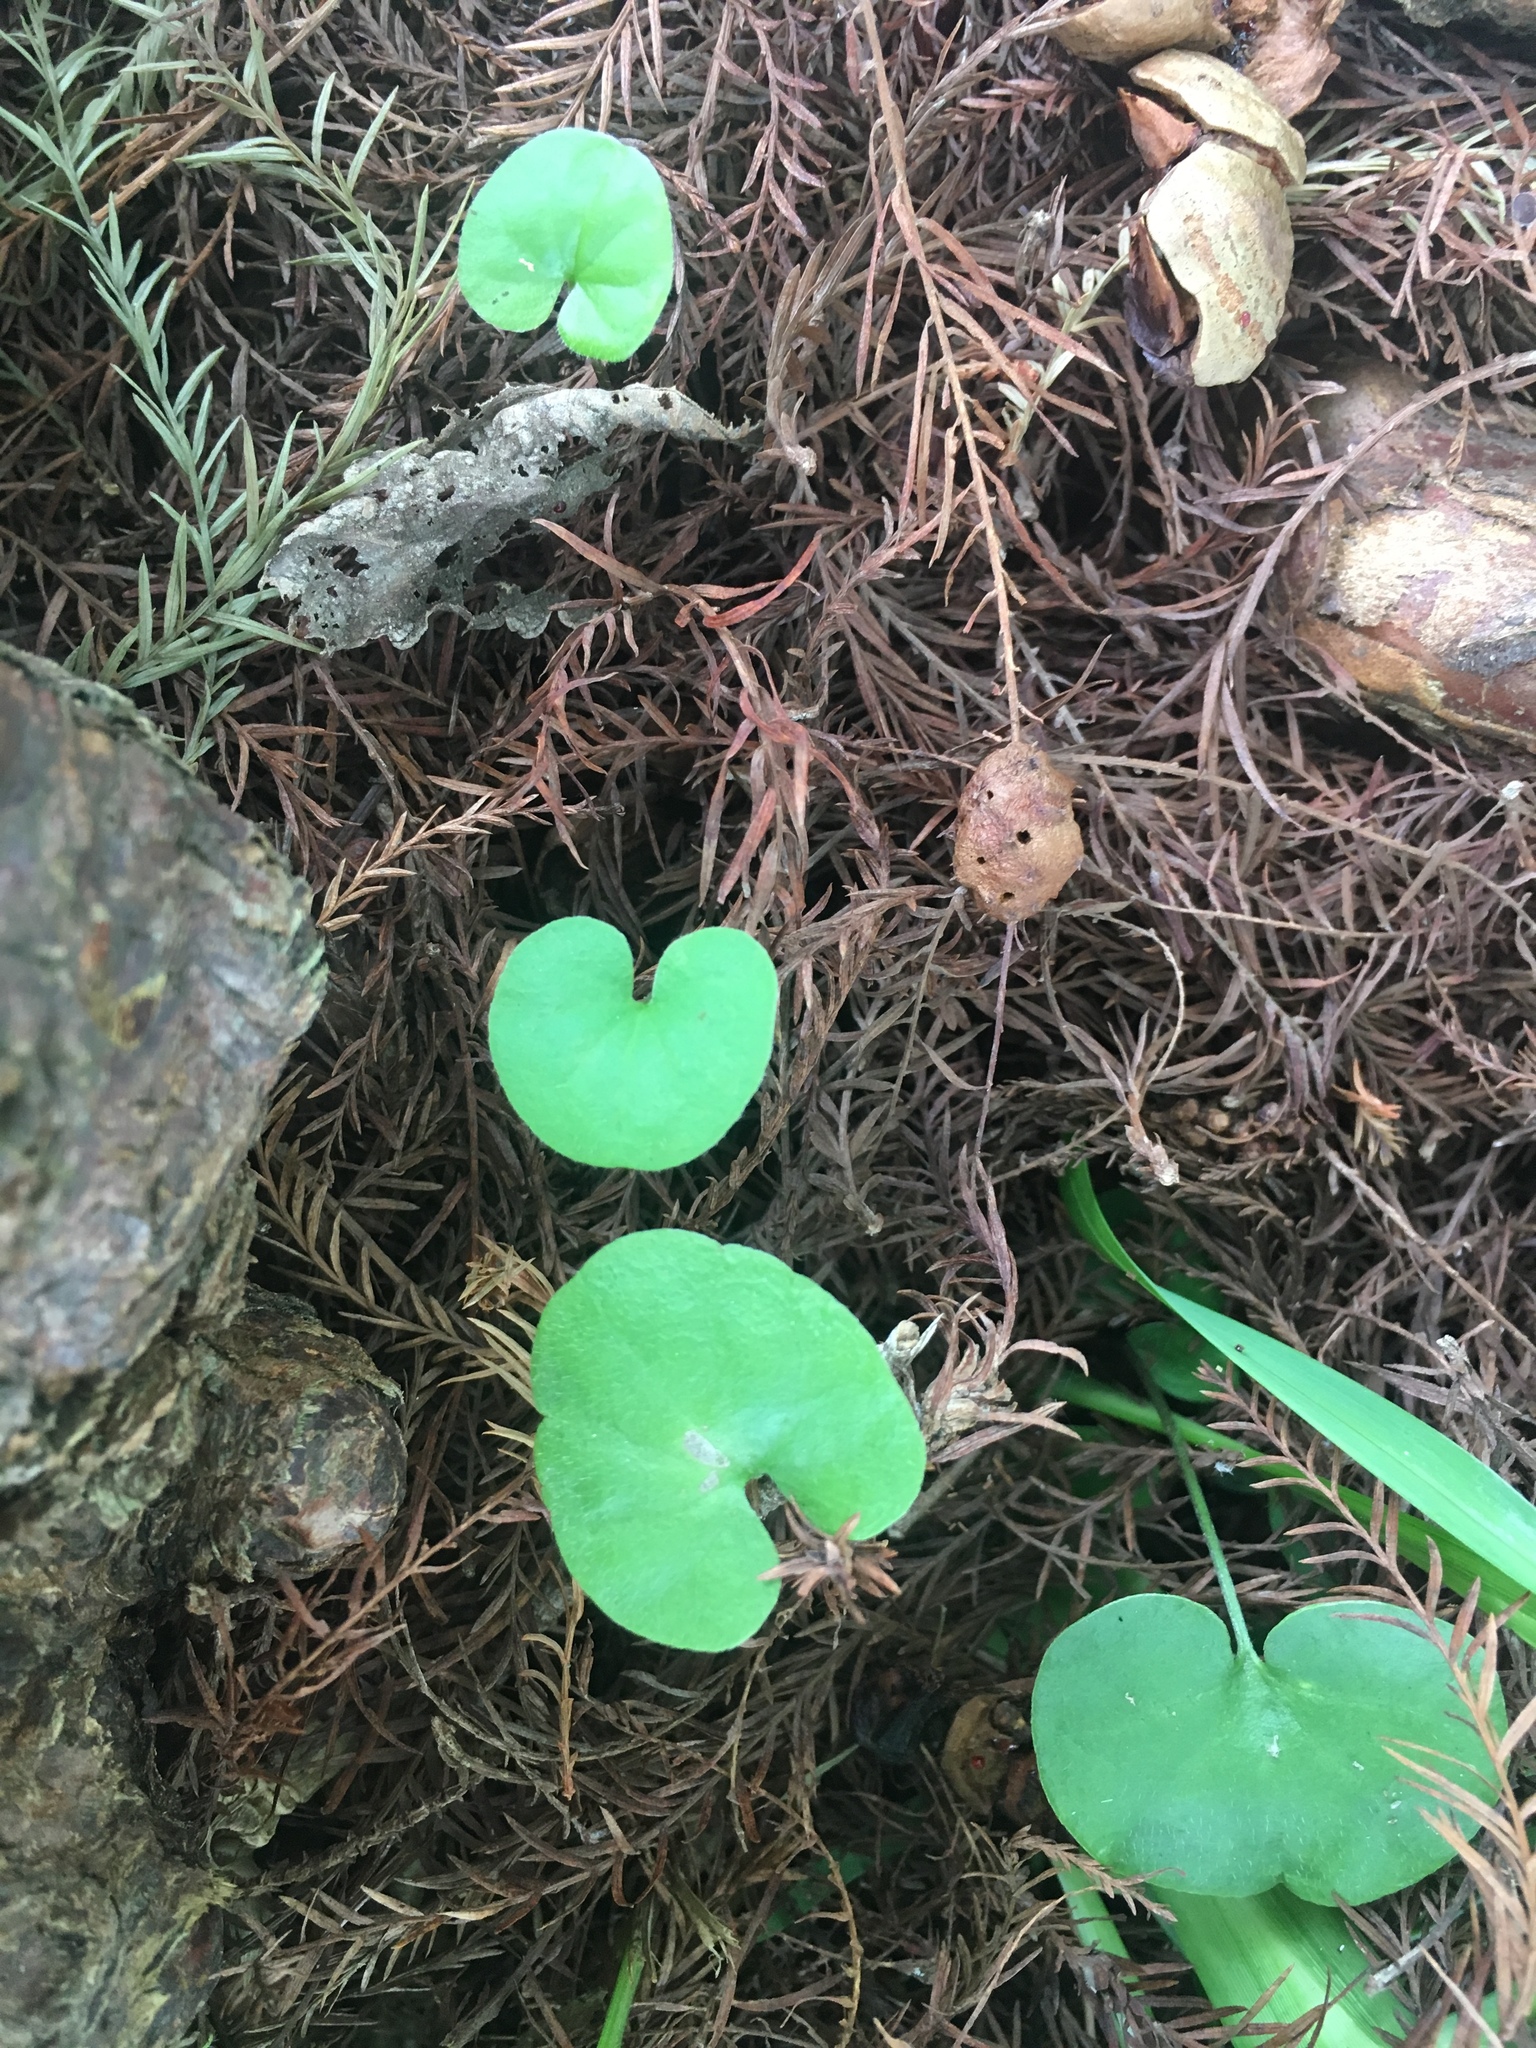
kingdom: Plantae
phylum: Tracheophyta
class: Magnoliopsida
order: Solanales
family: Convolvulaceae
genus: Dichondra
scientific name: Dichondra carolinensis
